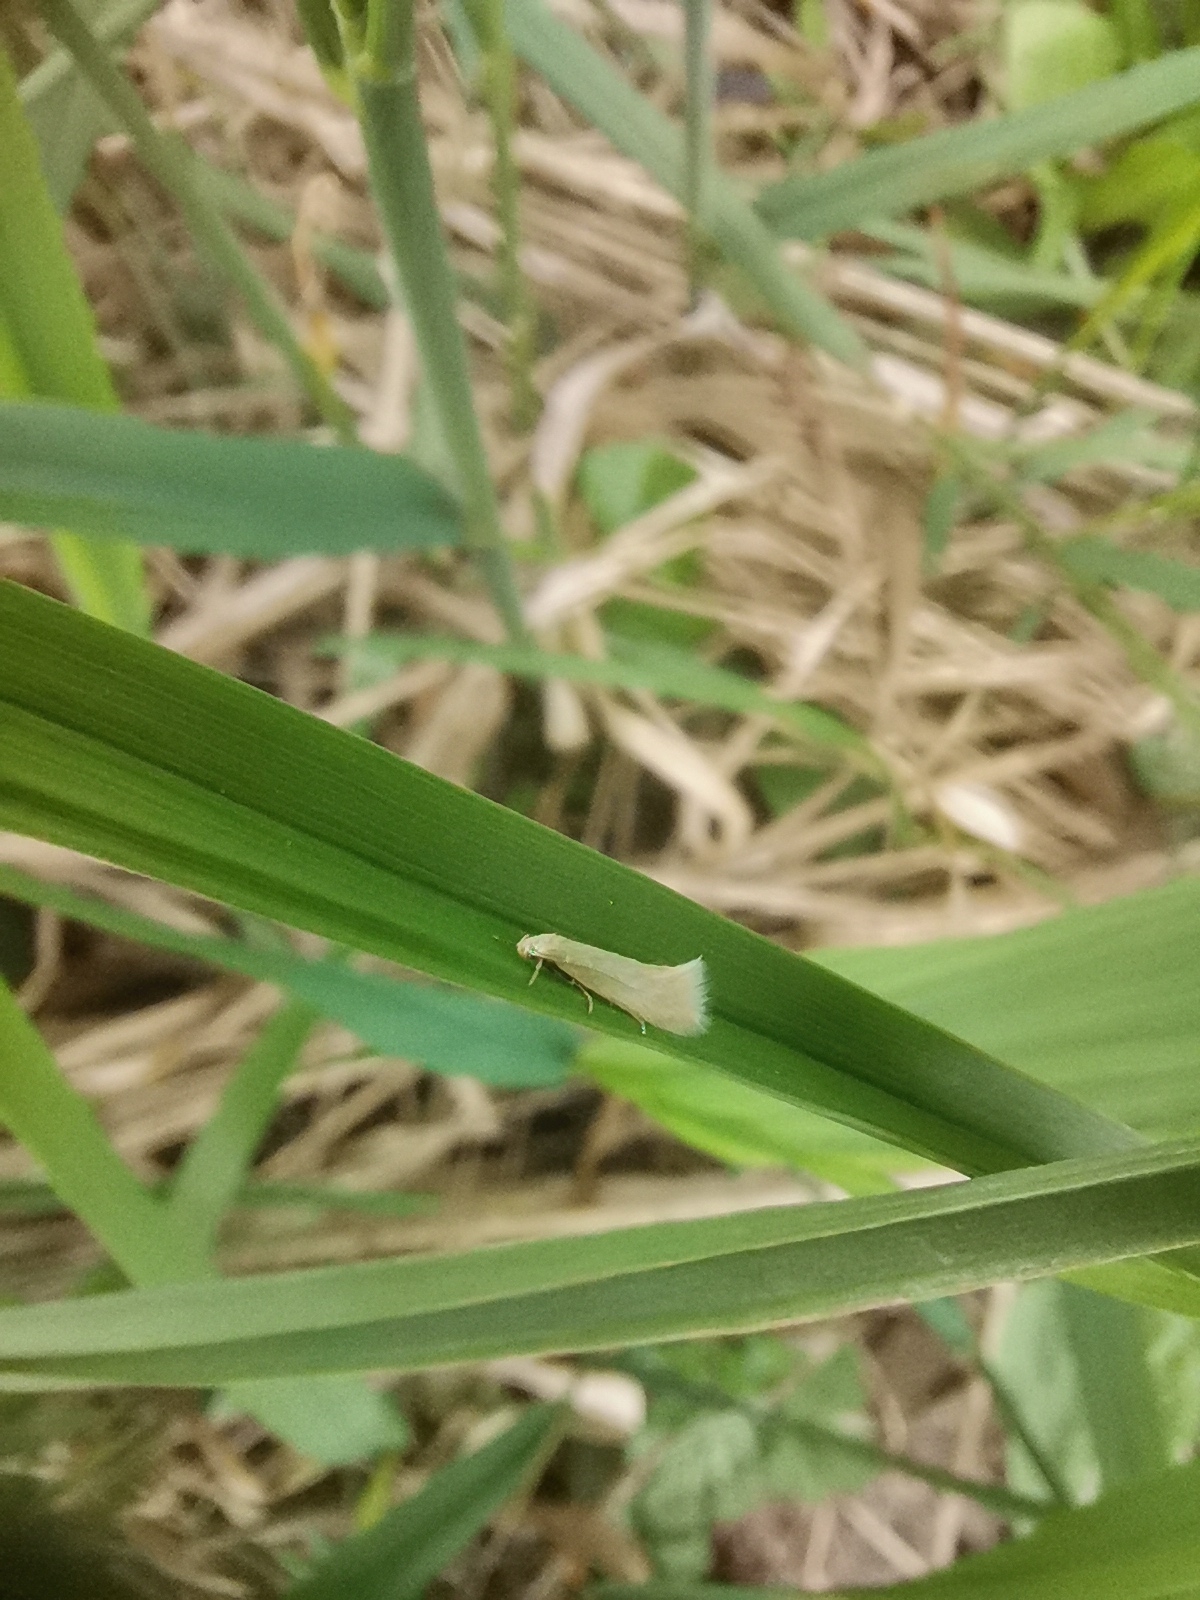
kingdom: Animalia
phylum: Arthropoda
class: Insecta
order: Lepidoptera
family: Elachistidae
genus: Elachista
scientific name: Elachista subalbidella
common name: Buff dwarf
